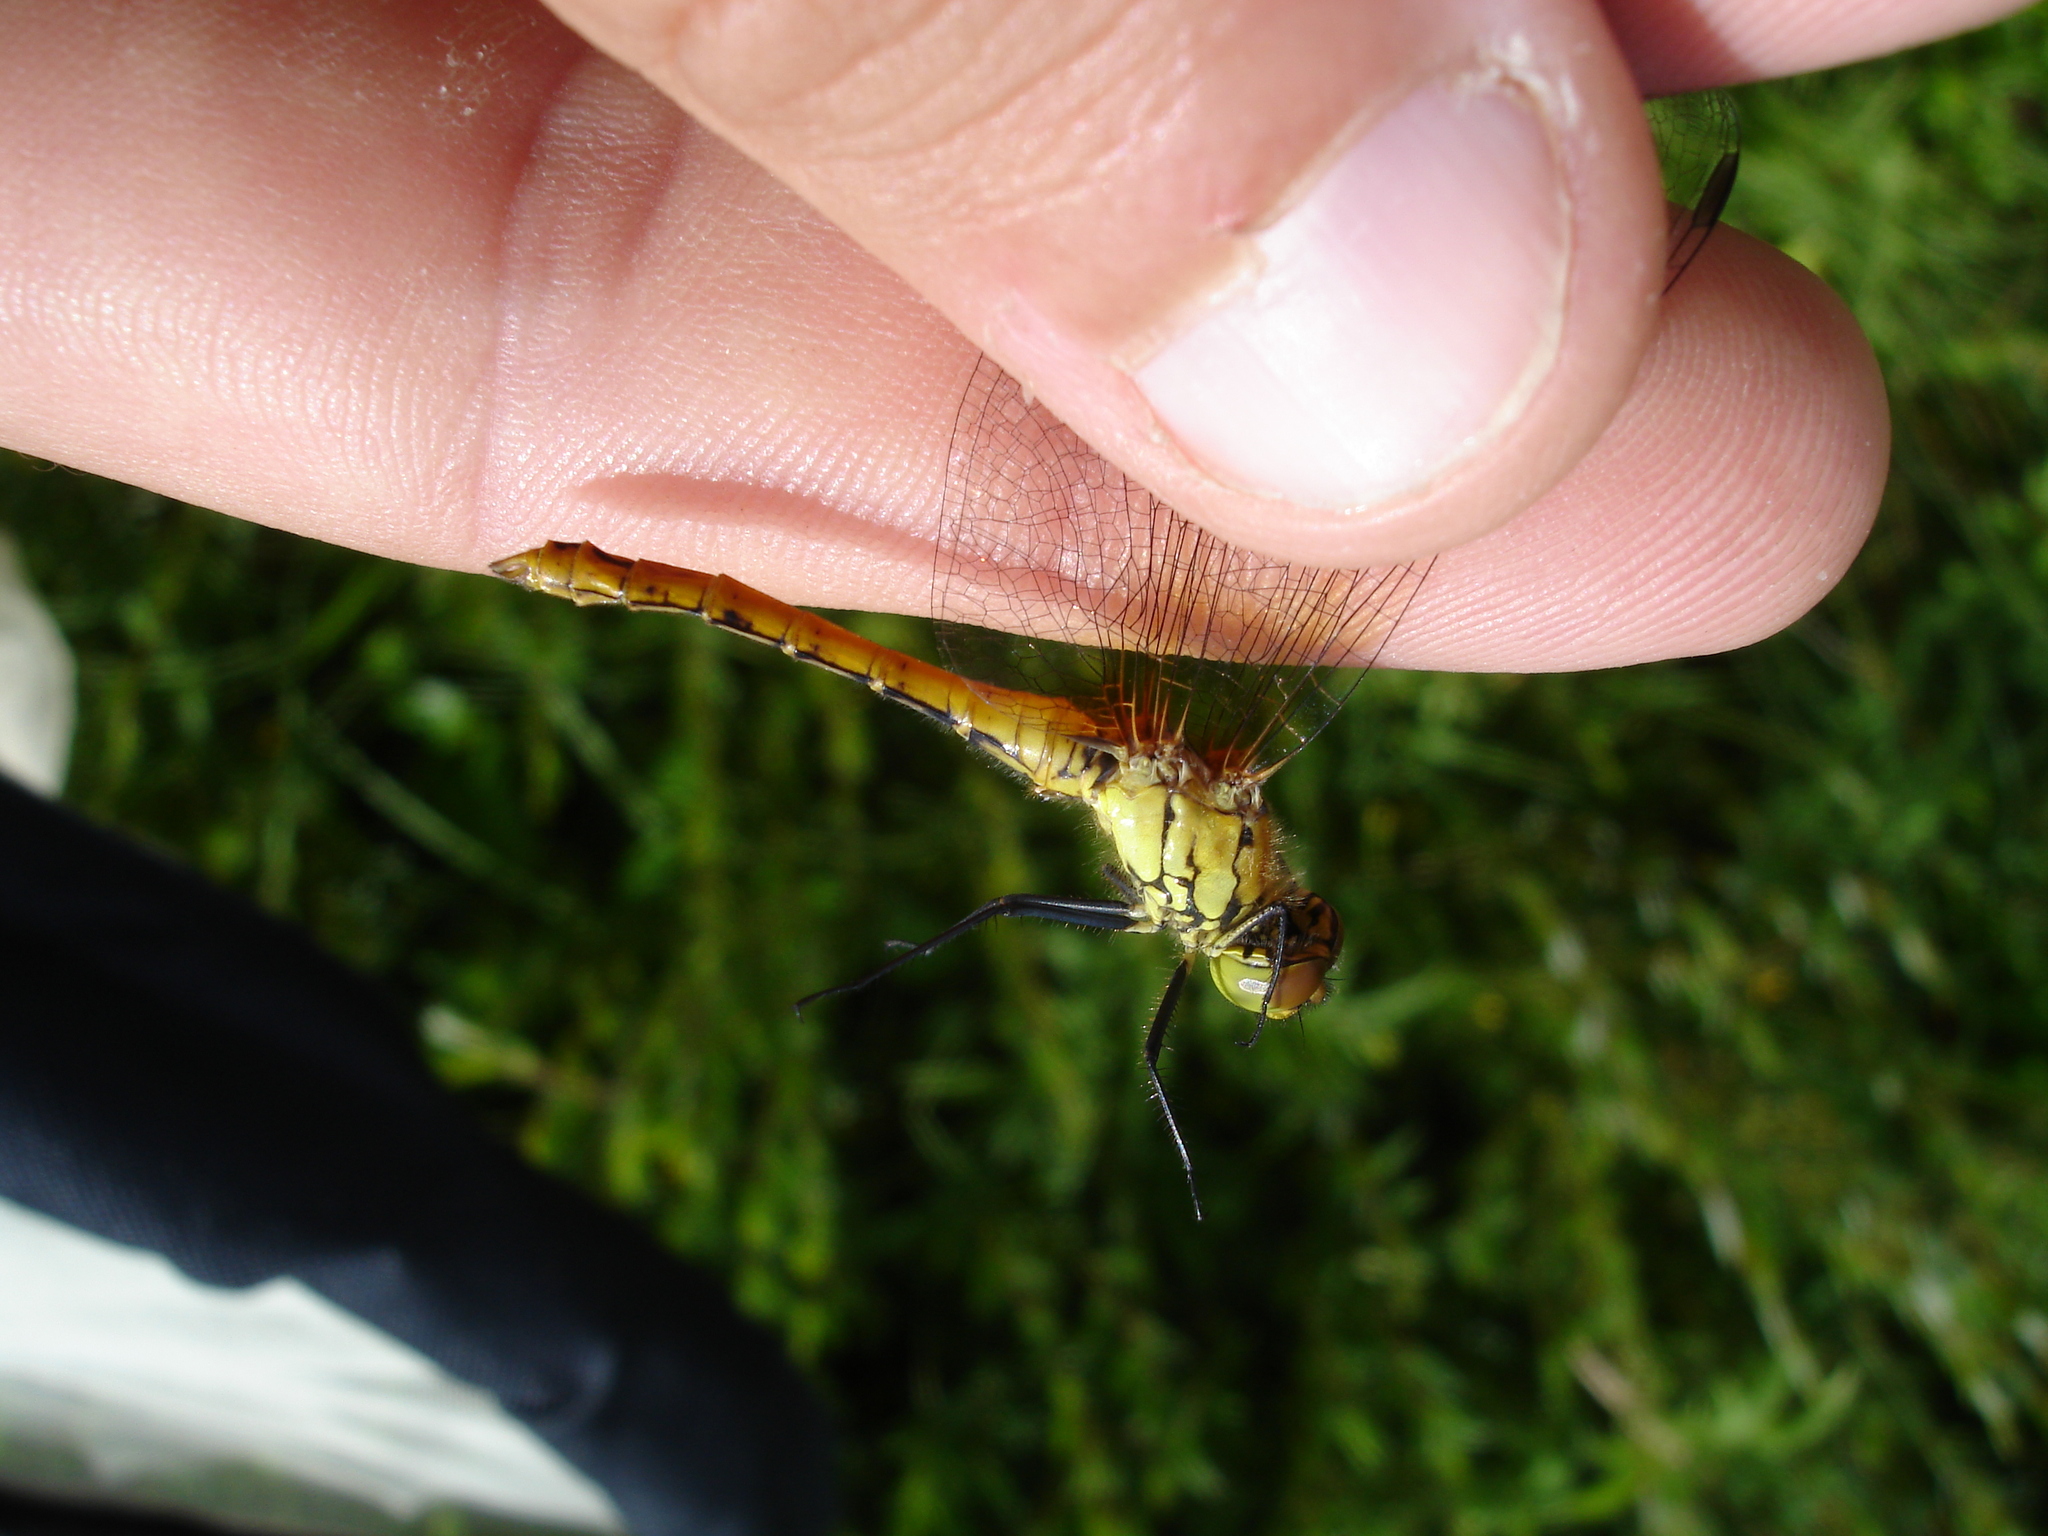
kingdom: Animalia
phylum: Arthropoda
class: Insecta
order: Odonata
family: Libellulidae
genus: Sympetrum
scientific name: Sympetrum sanguineum
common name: Ruddy darter
